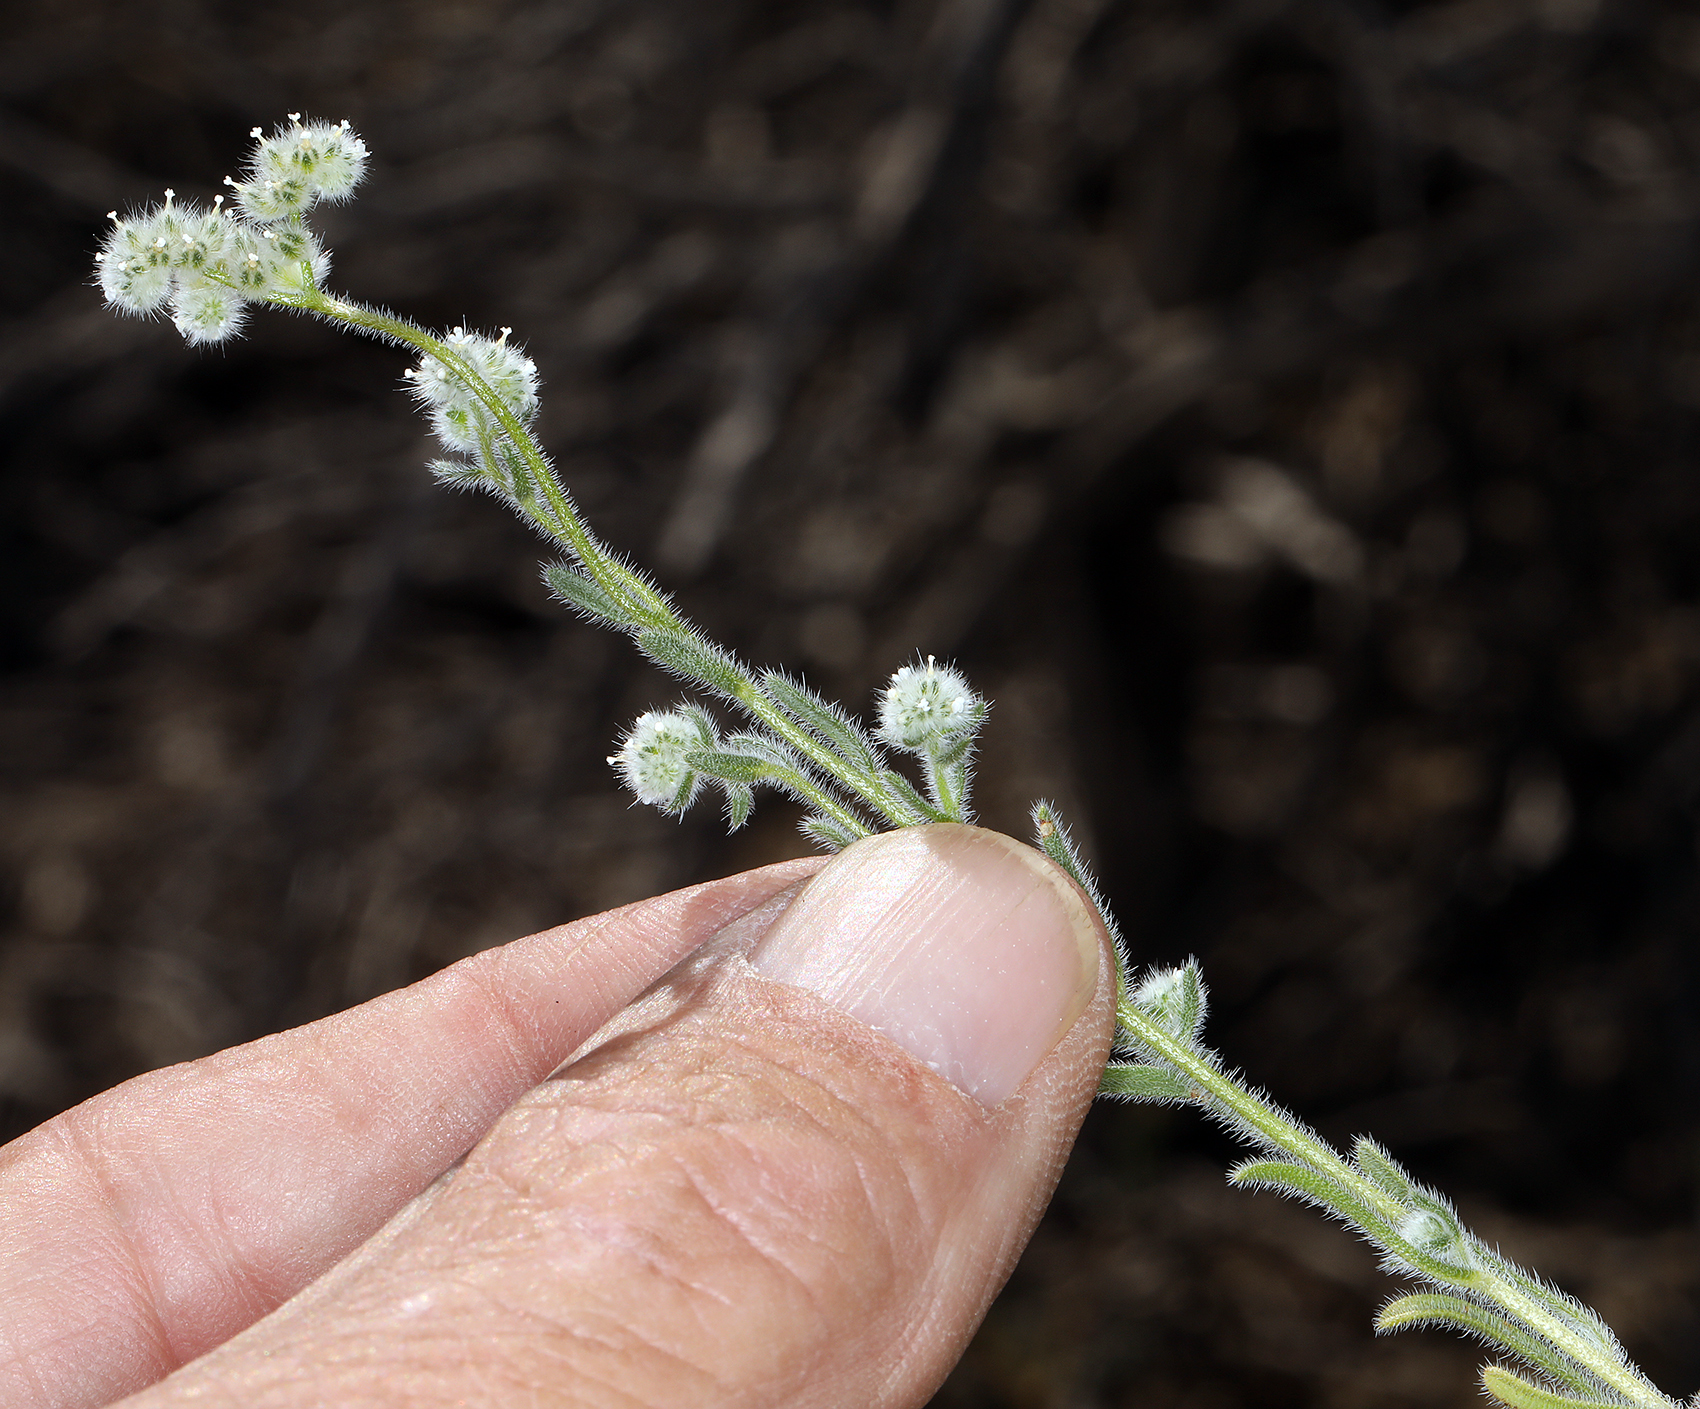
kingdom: Plantae
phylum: Tracheophyta
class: Magnoliopsida
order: Boraginales
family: Boraginaceae
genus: Cryptantha
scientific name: Cryptantha gracilis
